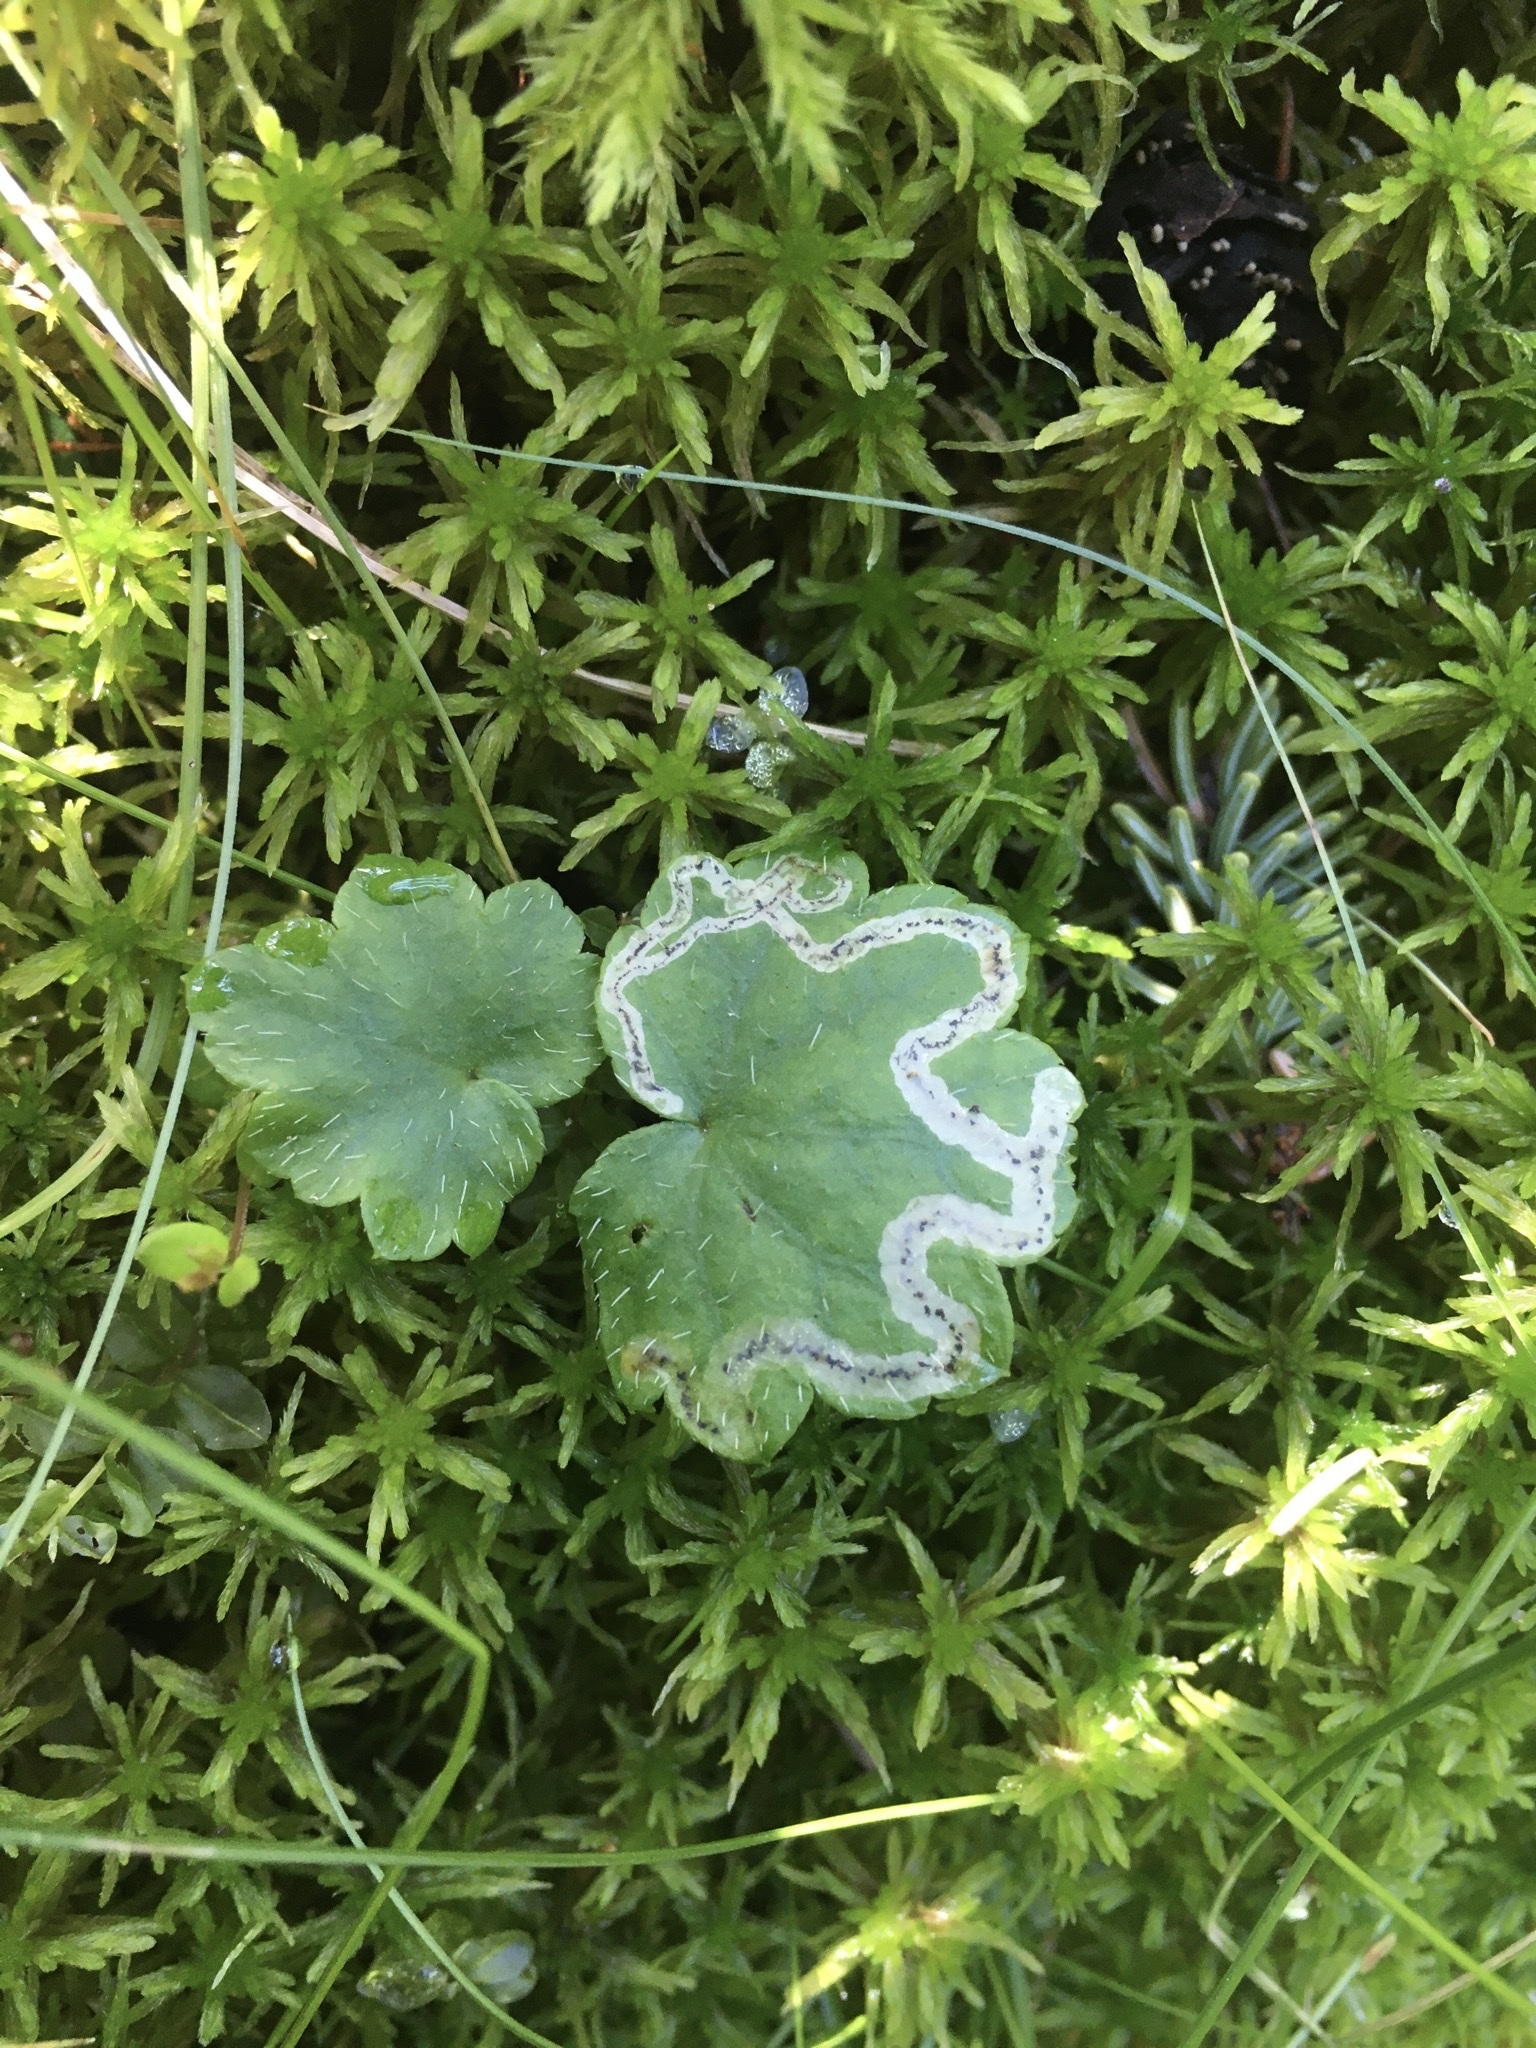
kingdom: Animalia
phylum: Arthropoda
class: Insecta
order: Diptera
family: Agromyzidae
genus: Phytomyza
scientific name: Phytomyza mitellae
